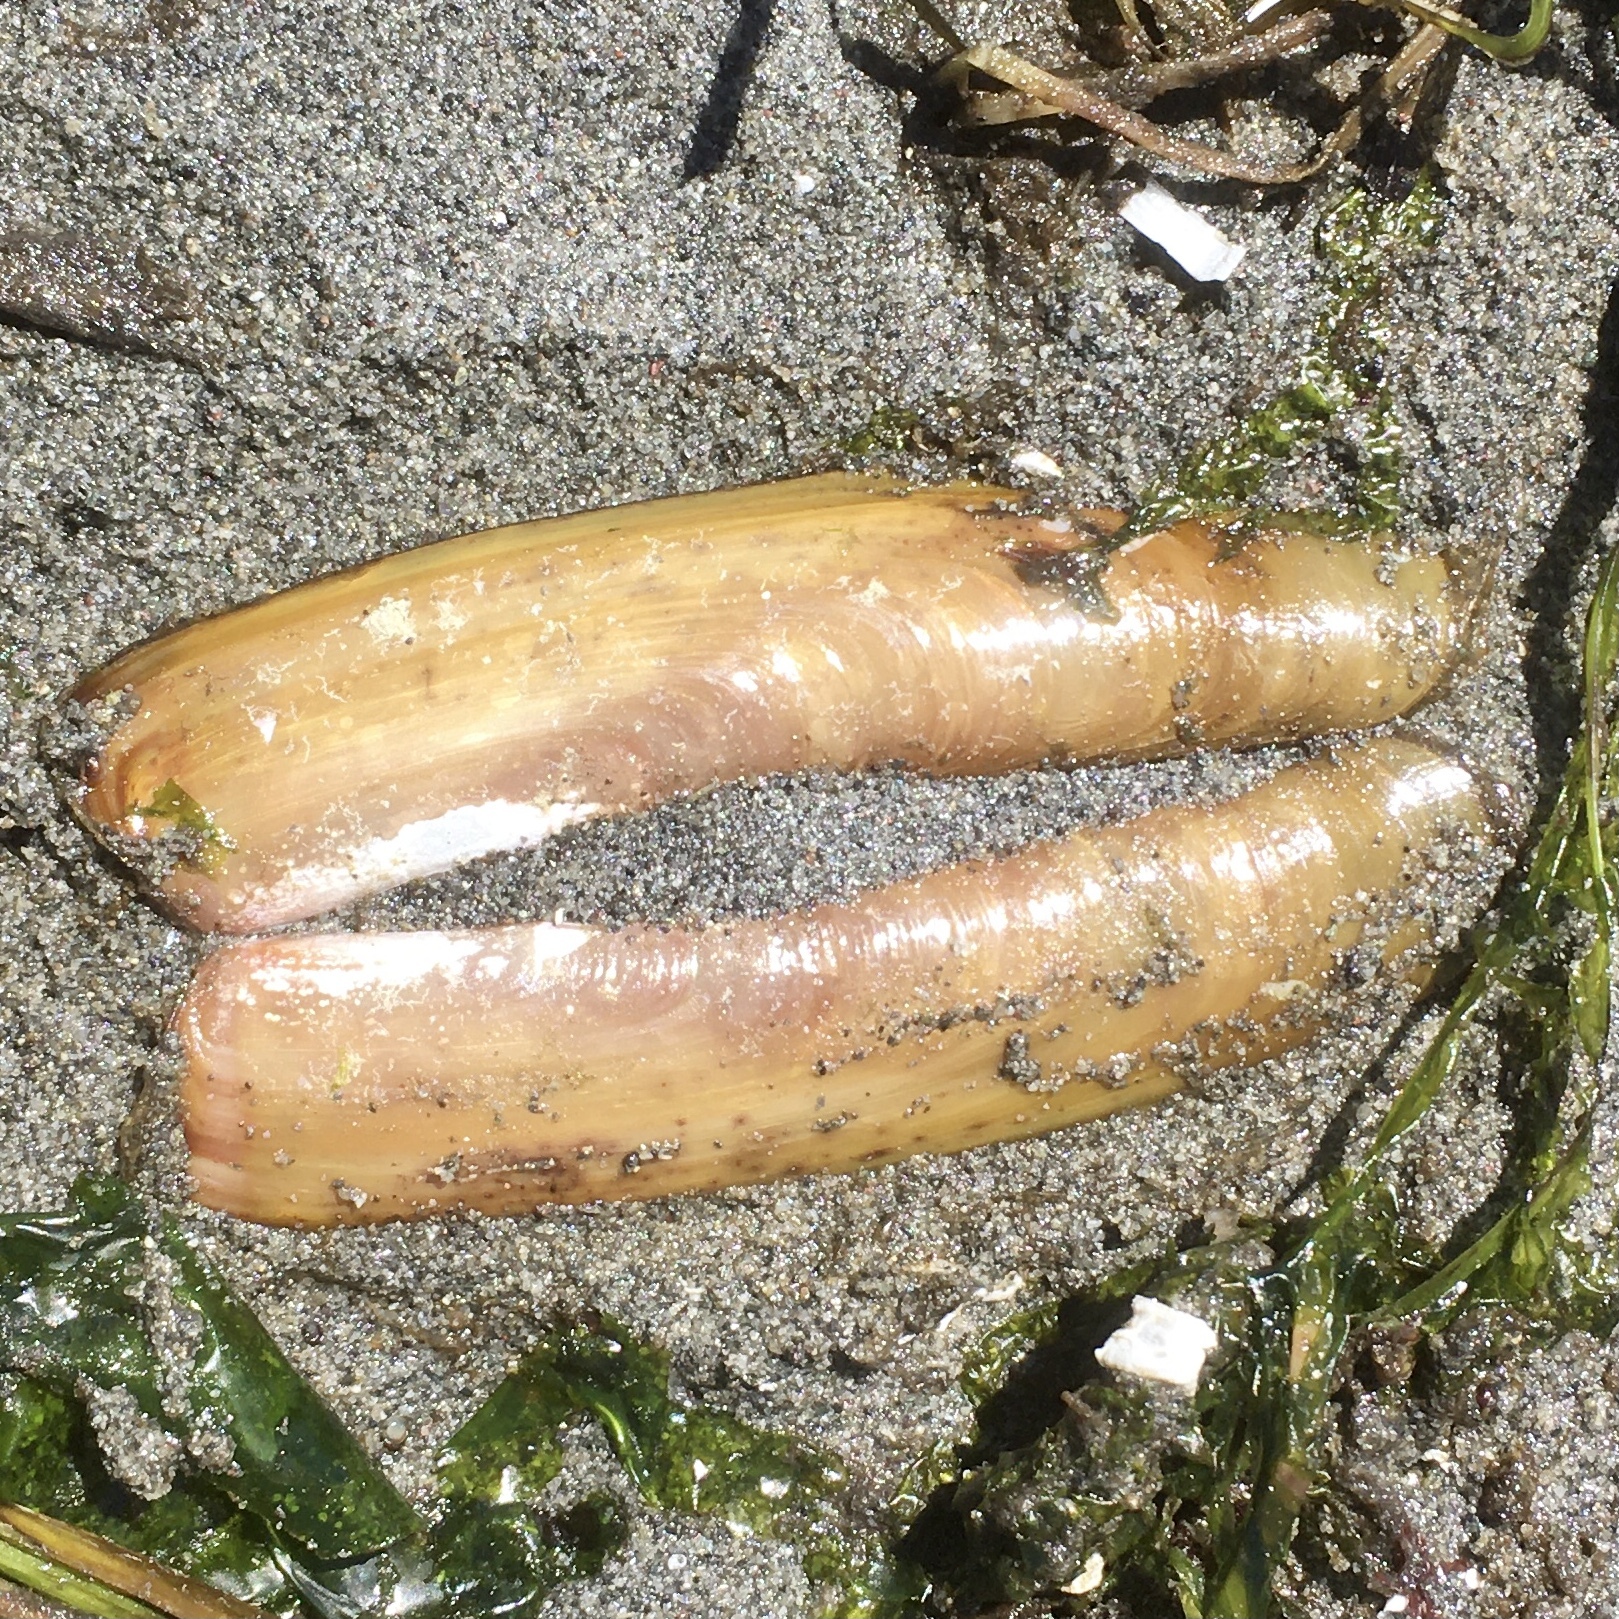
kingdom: Animalia
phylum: Mollusca
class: Bivalvia
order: Adapedonta
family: Solenidae
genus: Solen
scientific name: Solen sicarius
